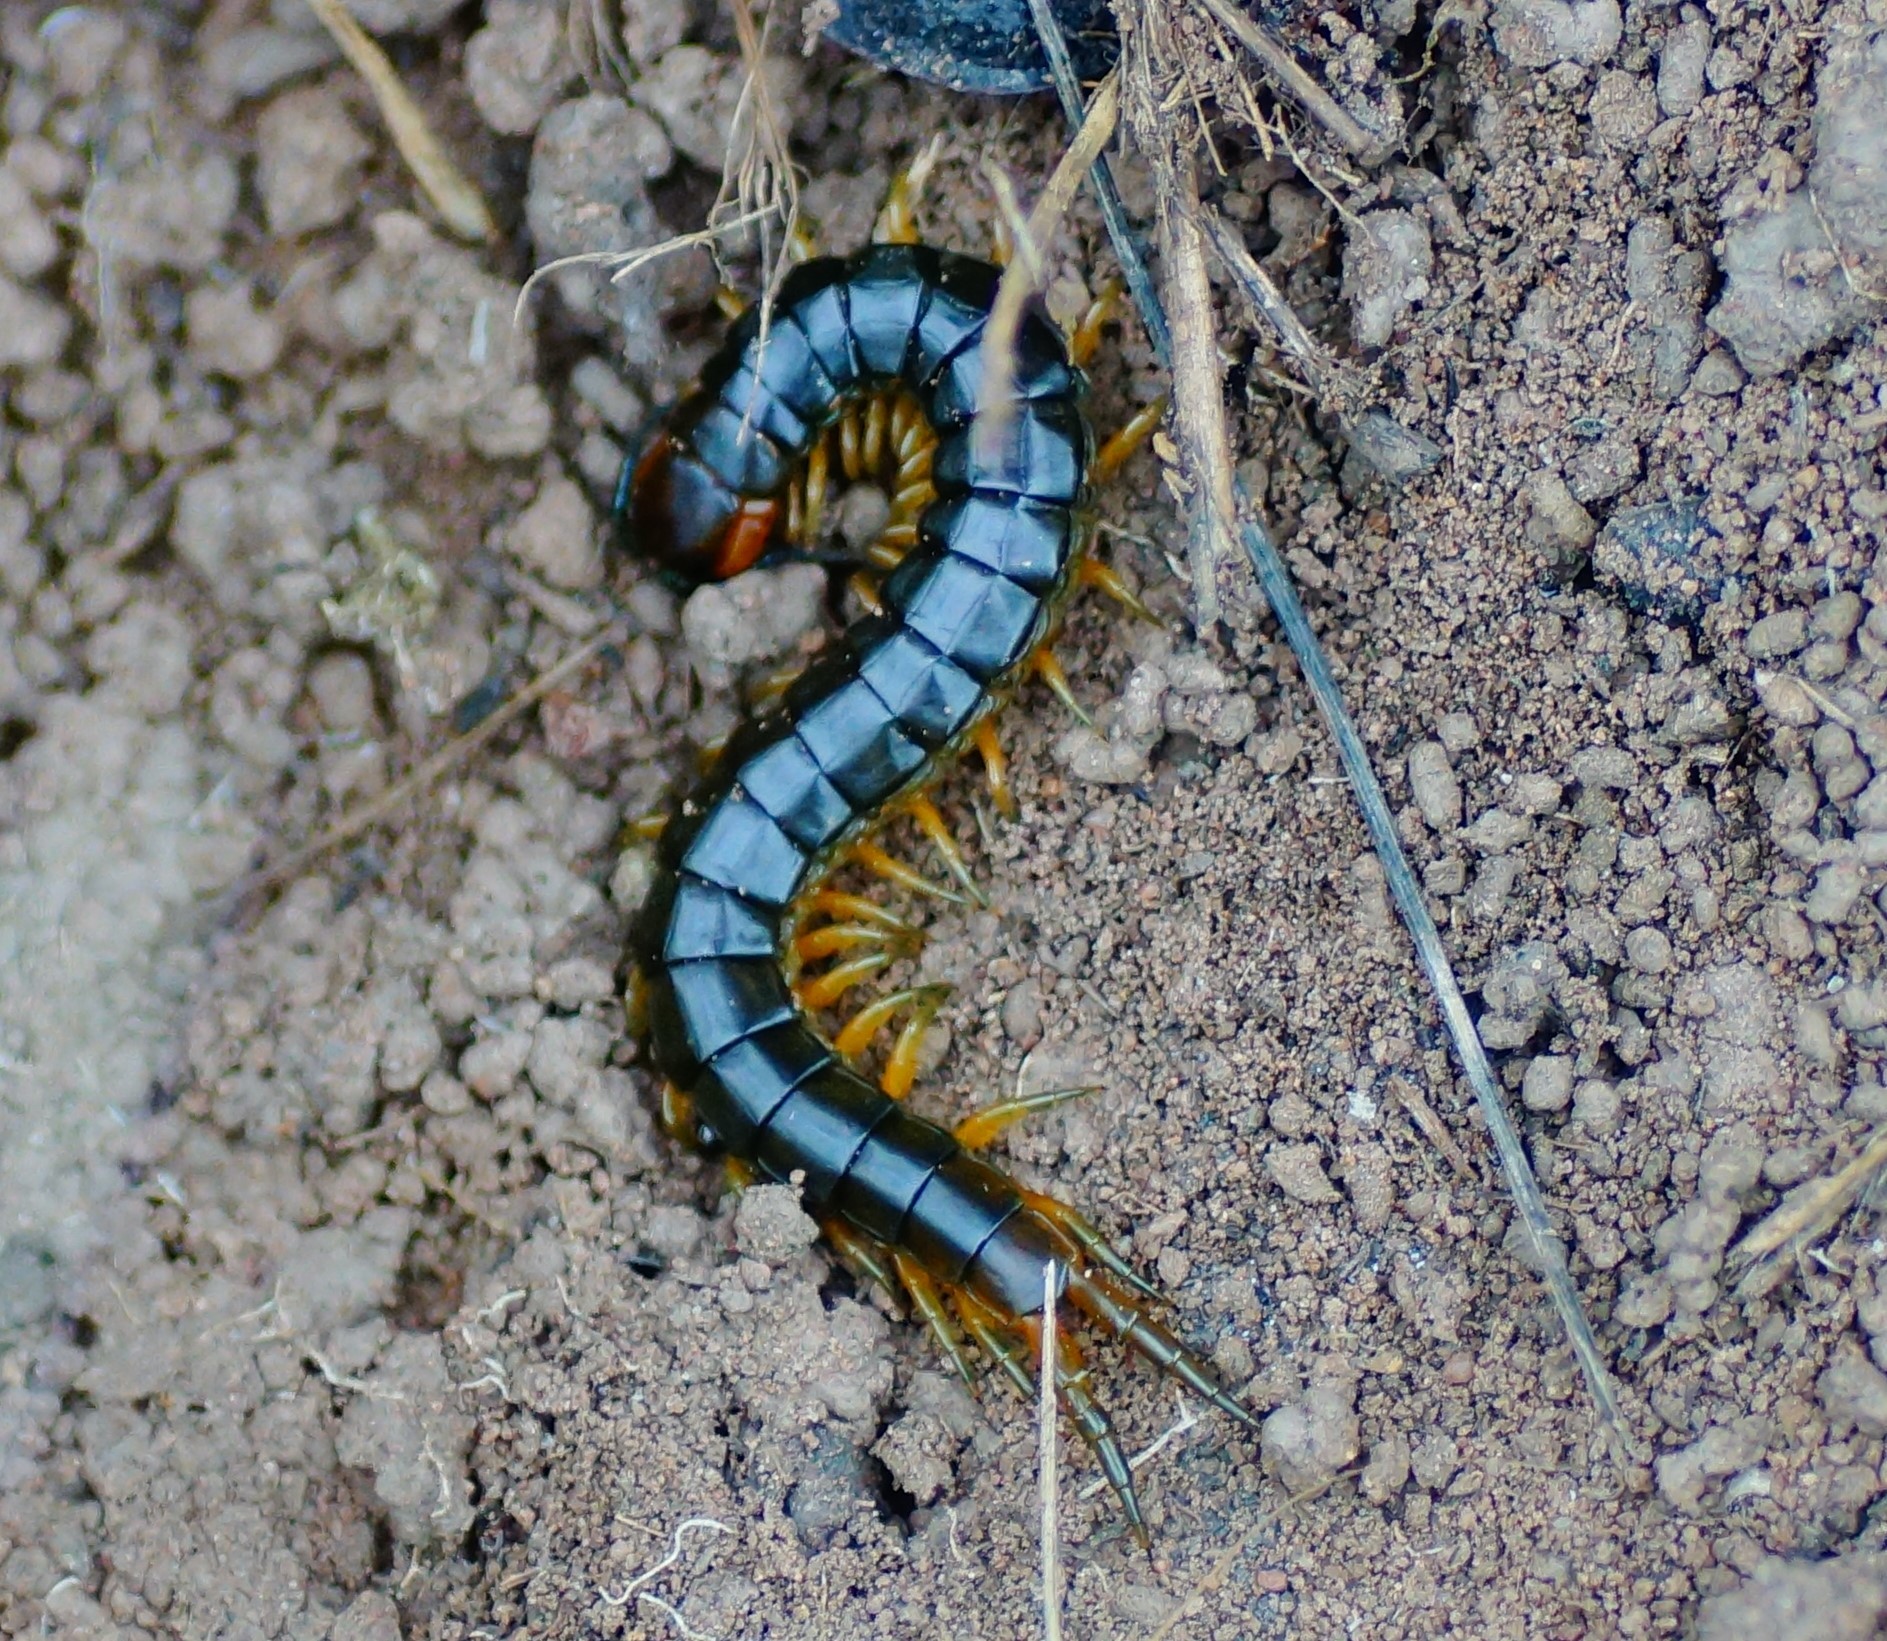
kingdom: Animalia
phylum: Arthropoda
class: Chilopoda
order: Scolopendromorpha
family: Scolopendridae
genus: Cormocephalus
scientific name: Cormocephalus aurantiipes
